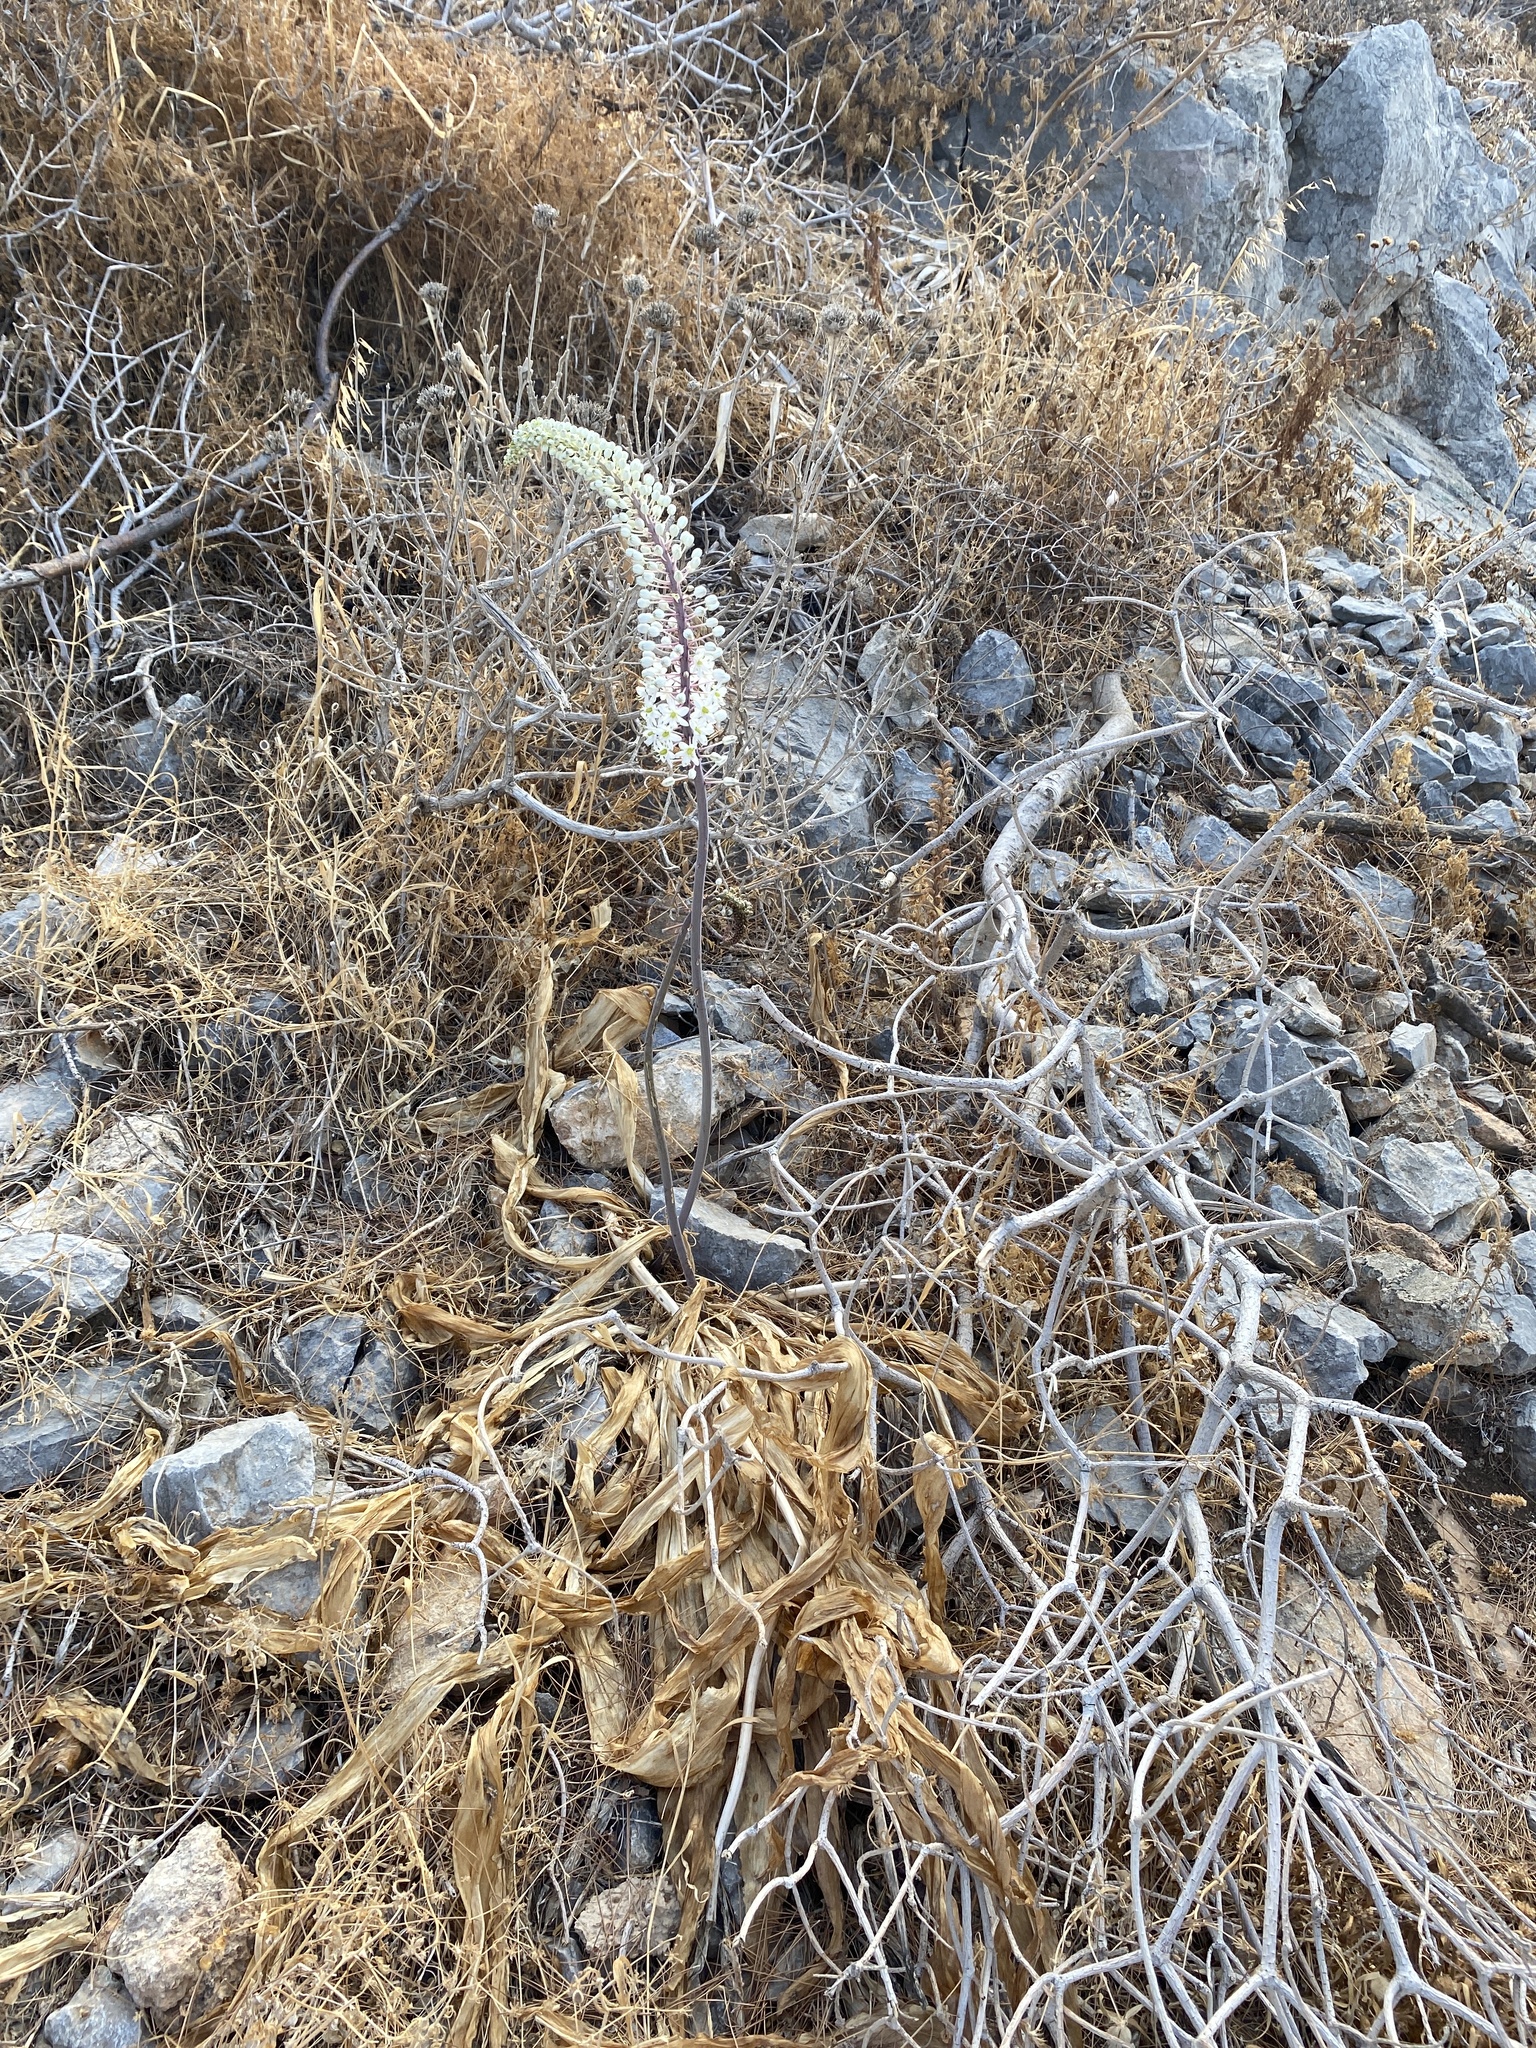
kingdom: Plantae
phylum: Tracheophyta
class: Liliopsida
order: Asparagales
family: Asparagaceae
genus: Drimia
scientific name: Drimia numidica
